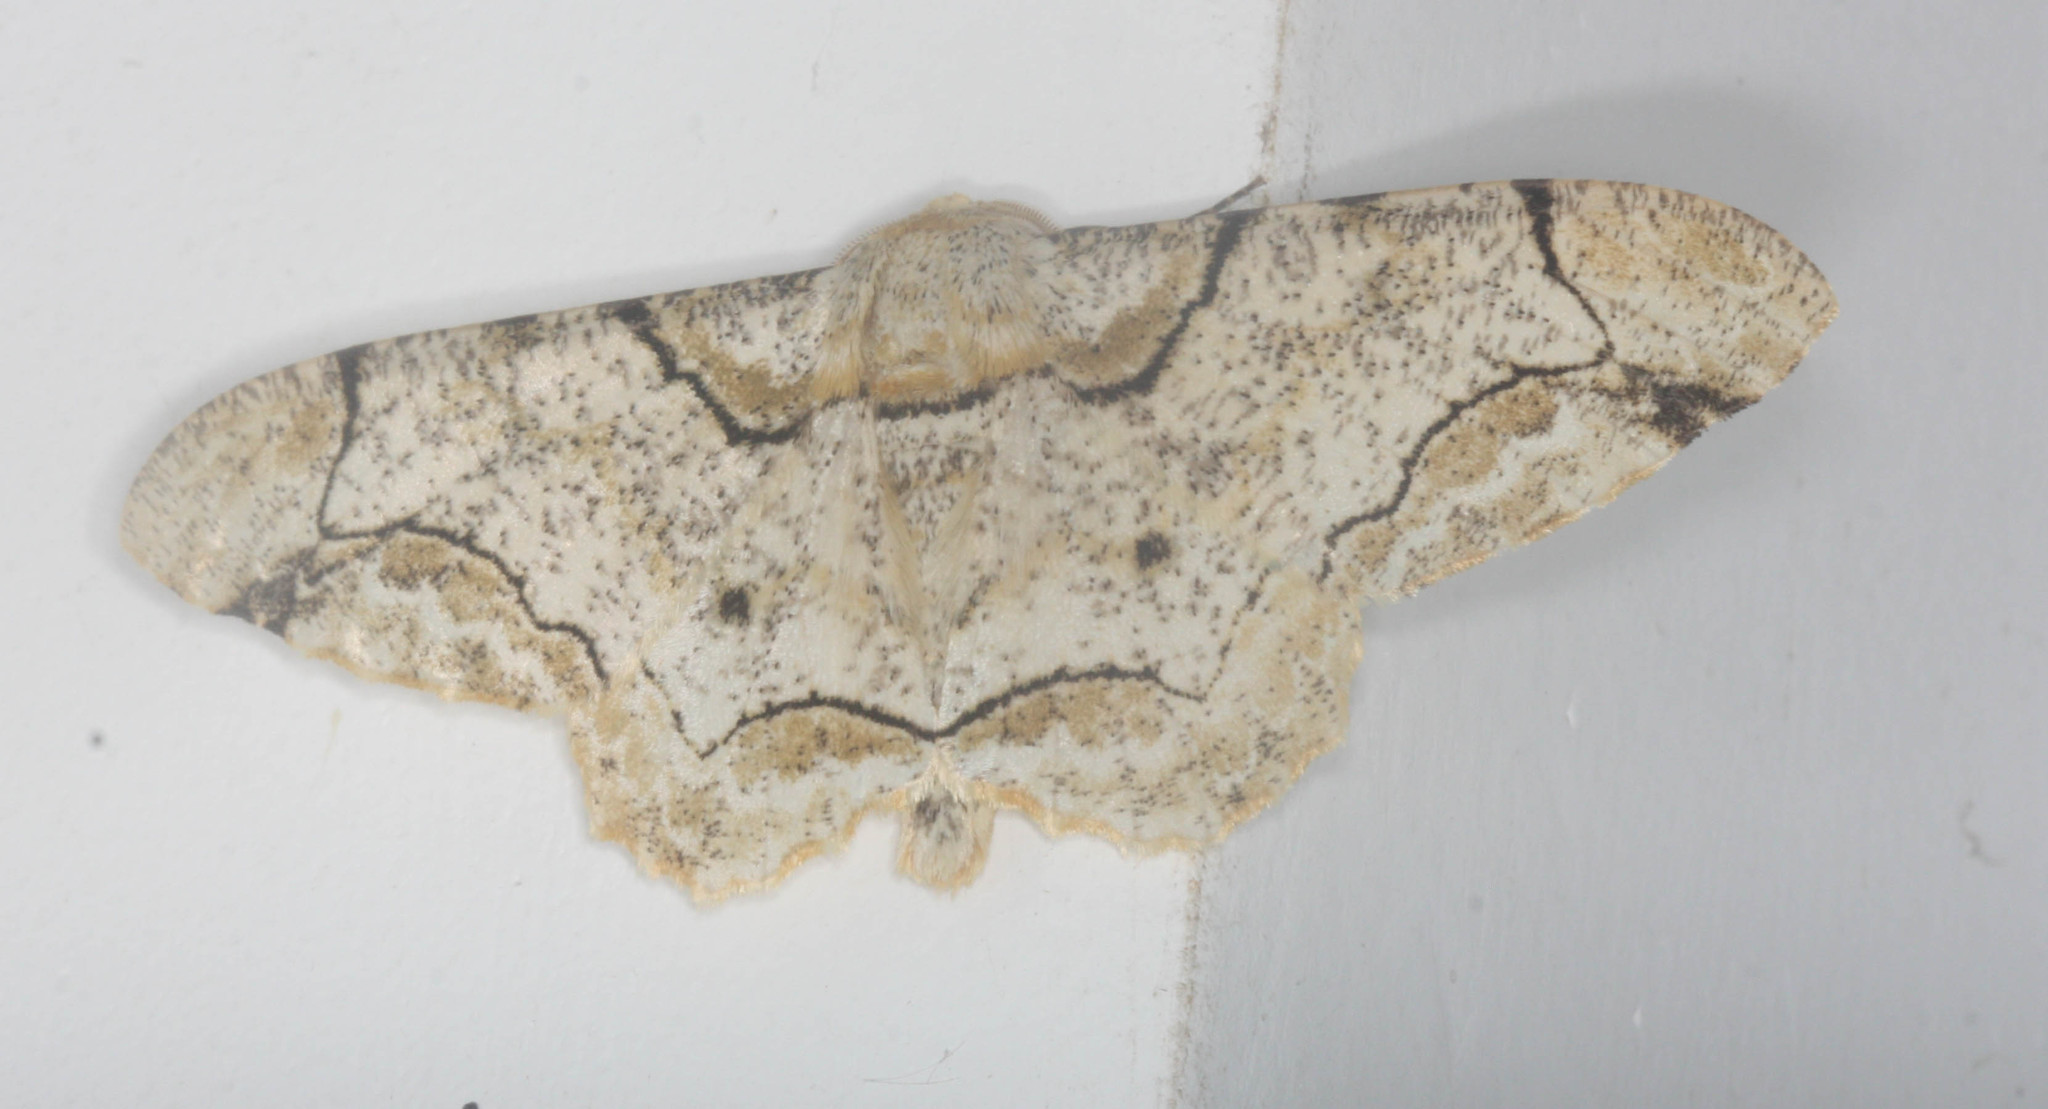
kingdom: Animalia
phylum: Arthropoda
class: Insecta
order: Lepidoptera
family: Geometridae
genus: Biston
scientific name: Biston bengaliaria
